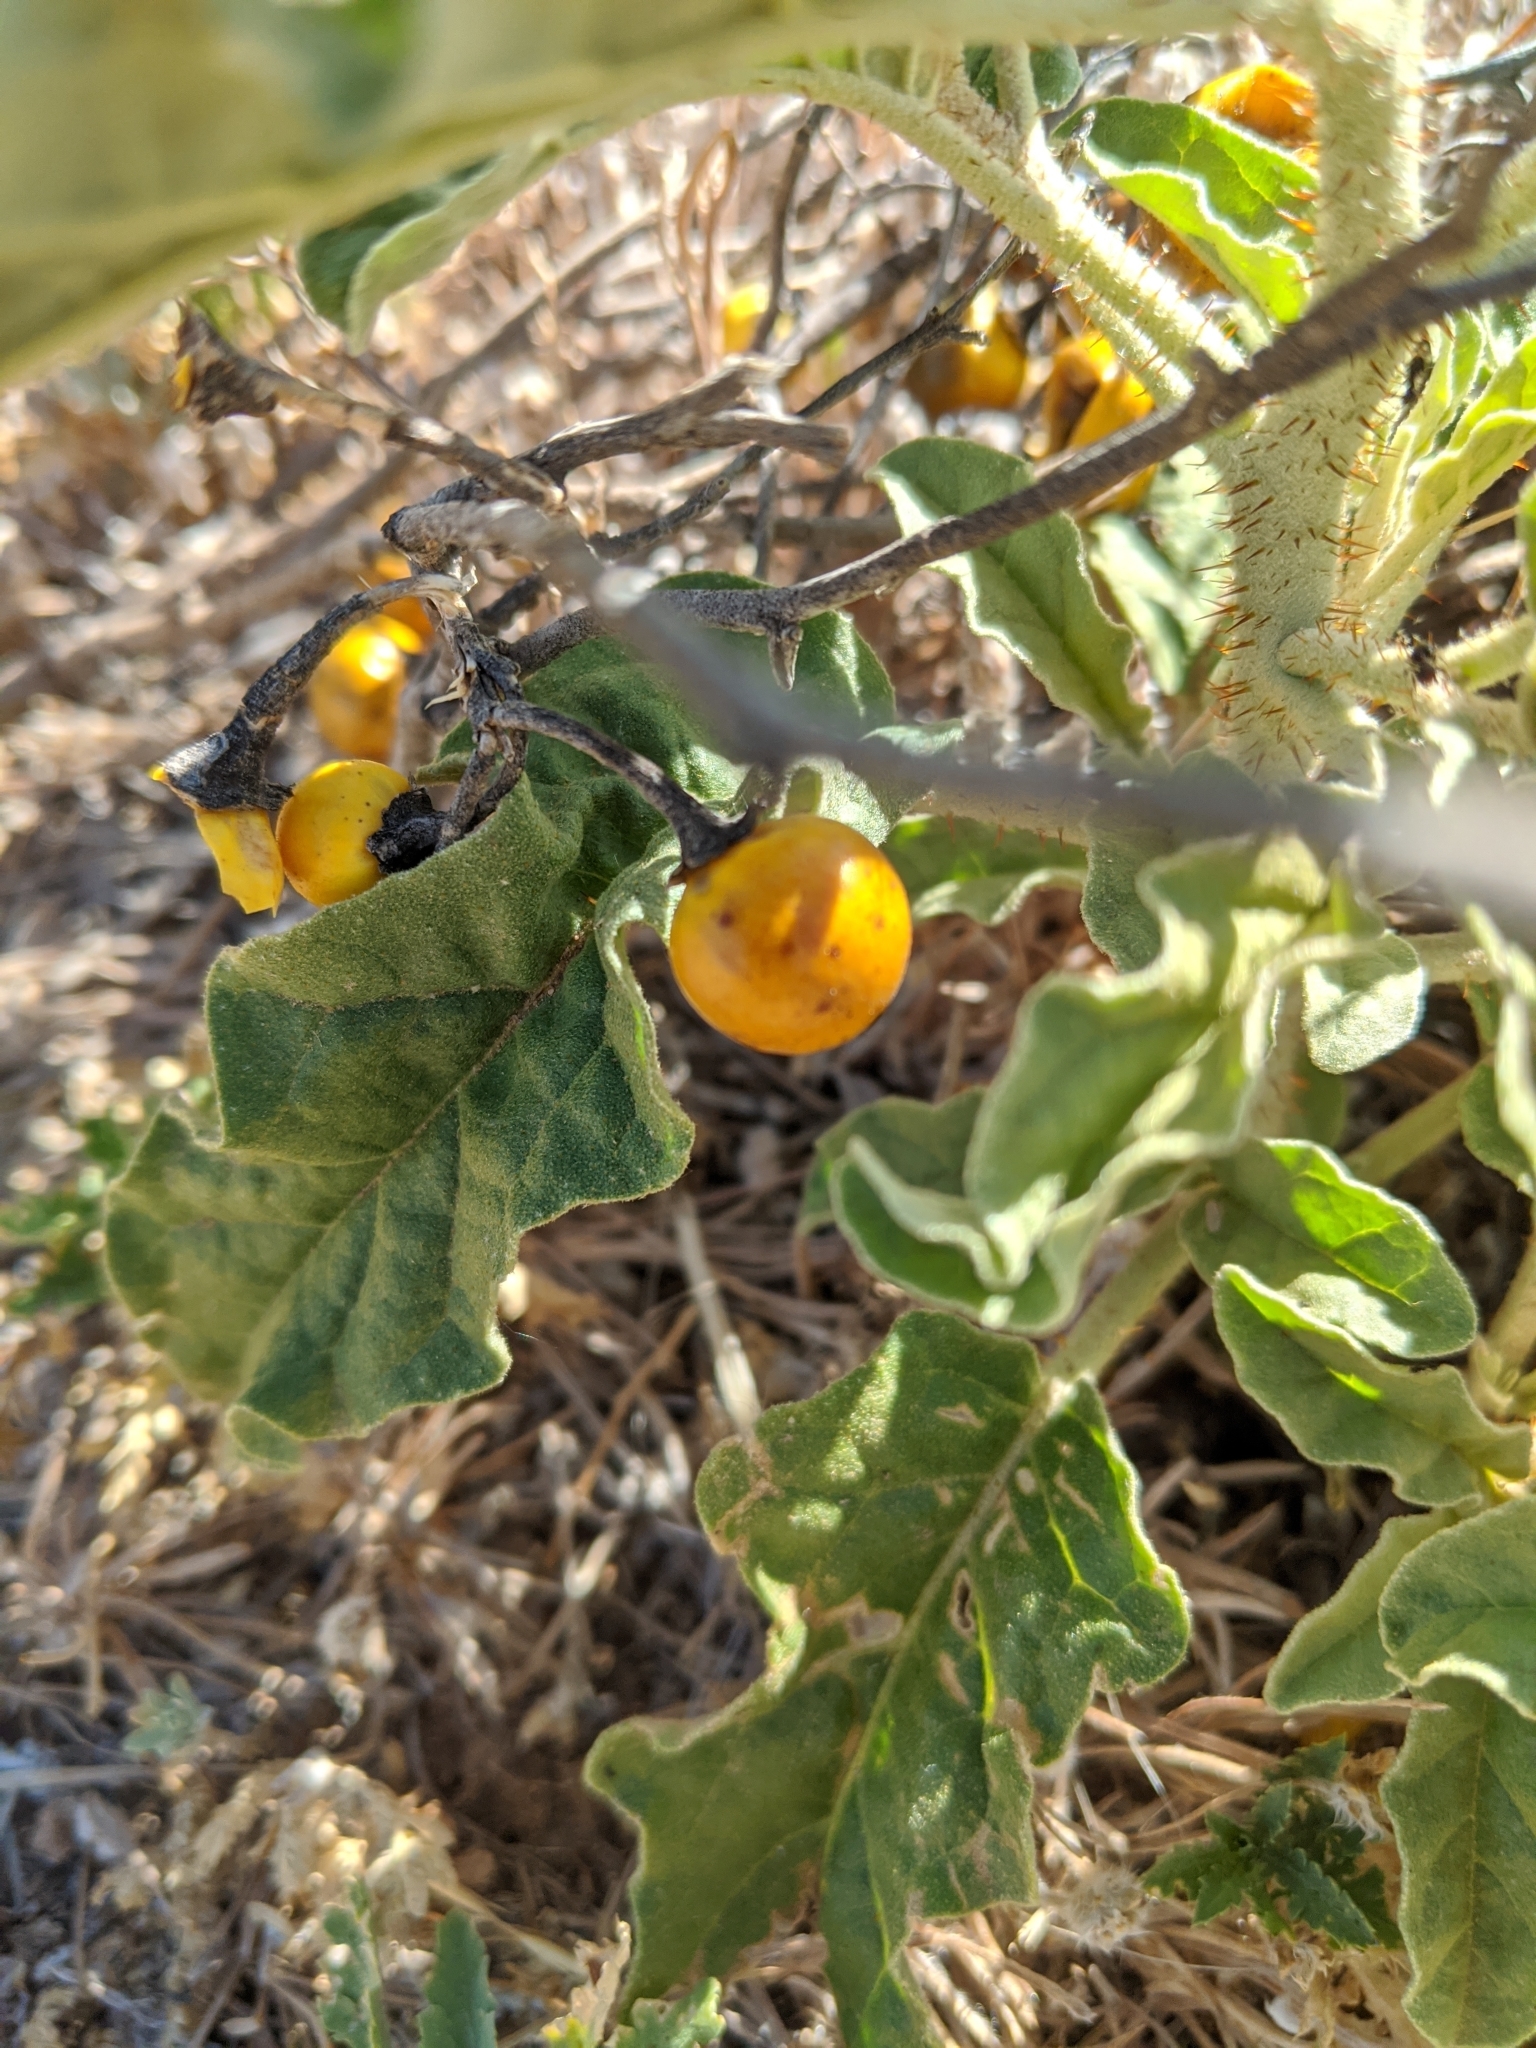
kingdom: Plantae
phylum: Tracheophyta
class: Magnoliopsida
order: Solanales
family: Solanaceae
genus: Solanum
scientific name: Solanum elaeagnifolium
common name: Silverleaf nightshade
